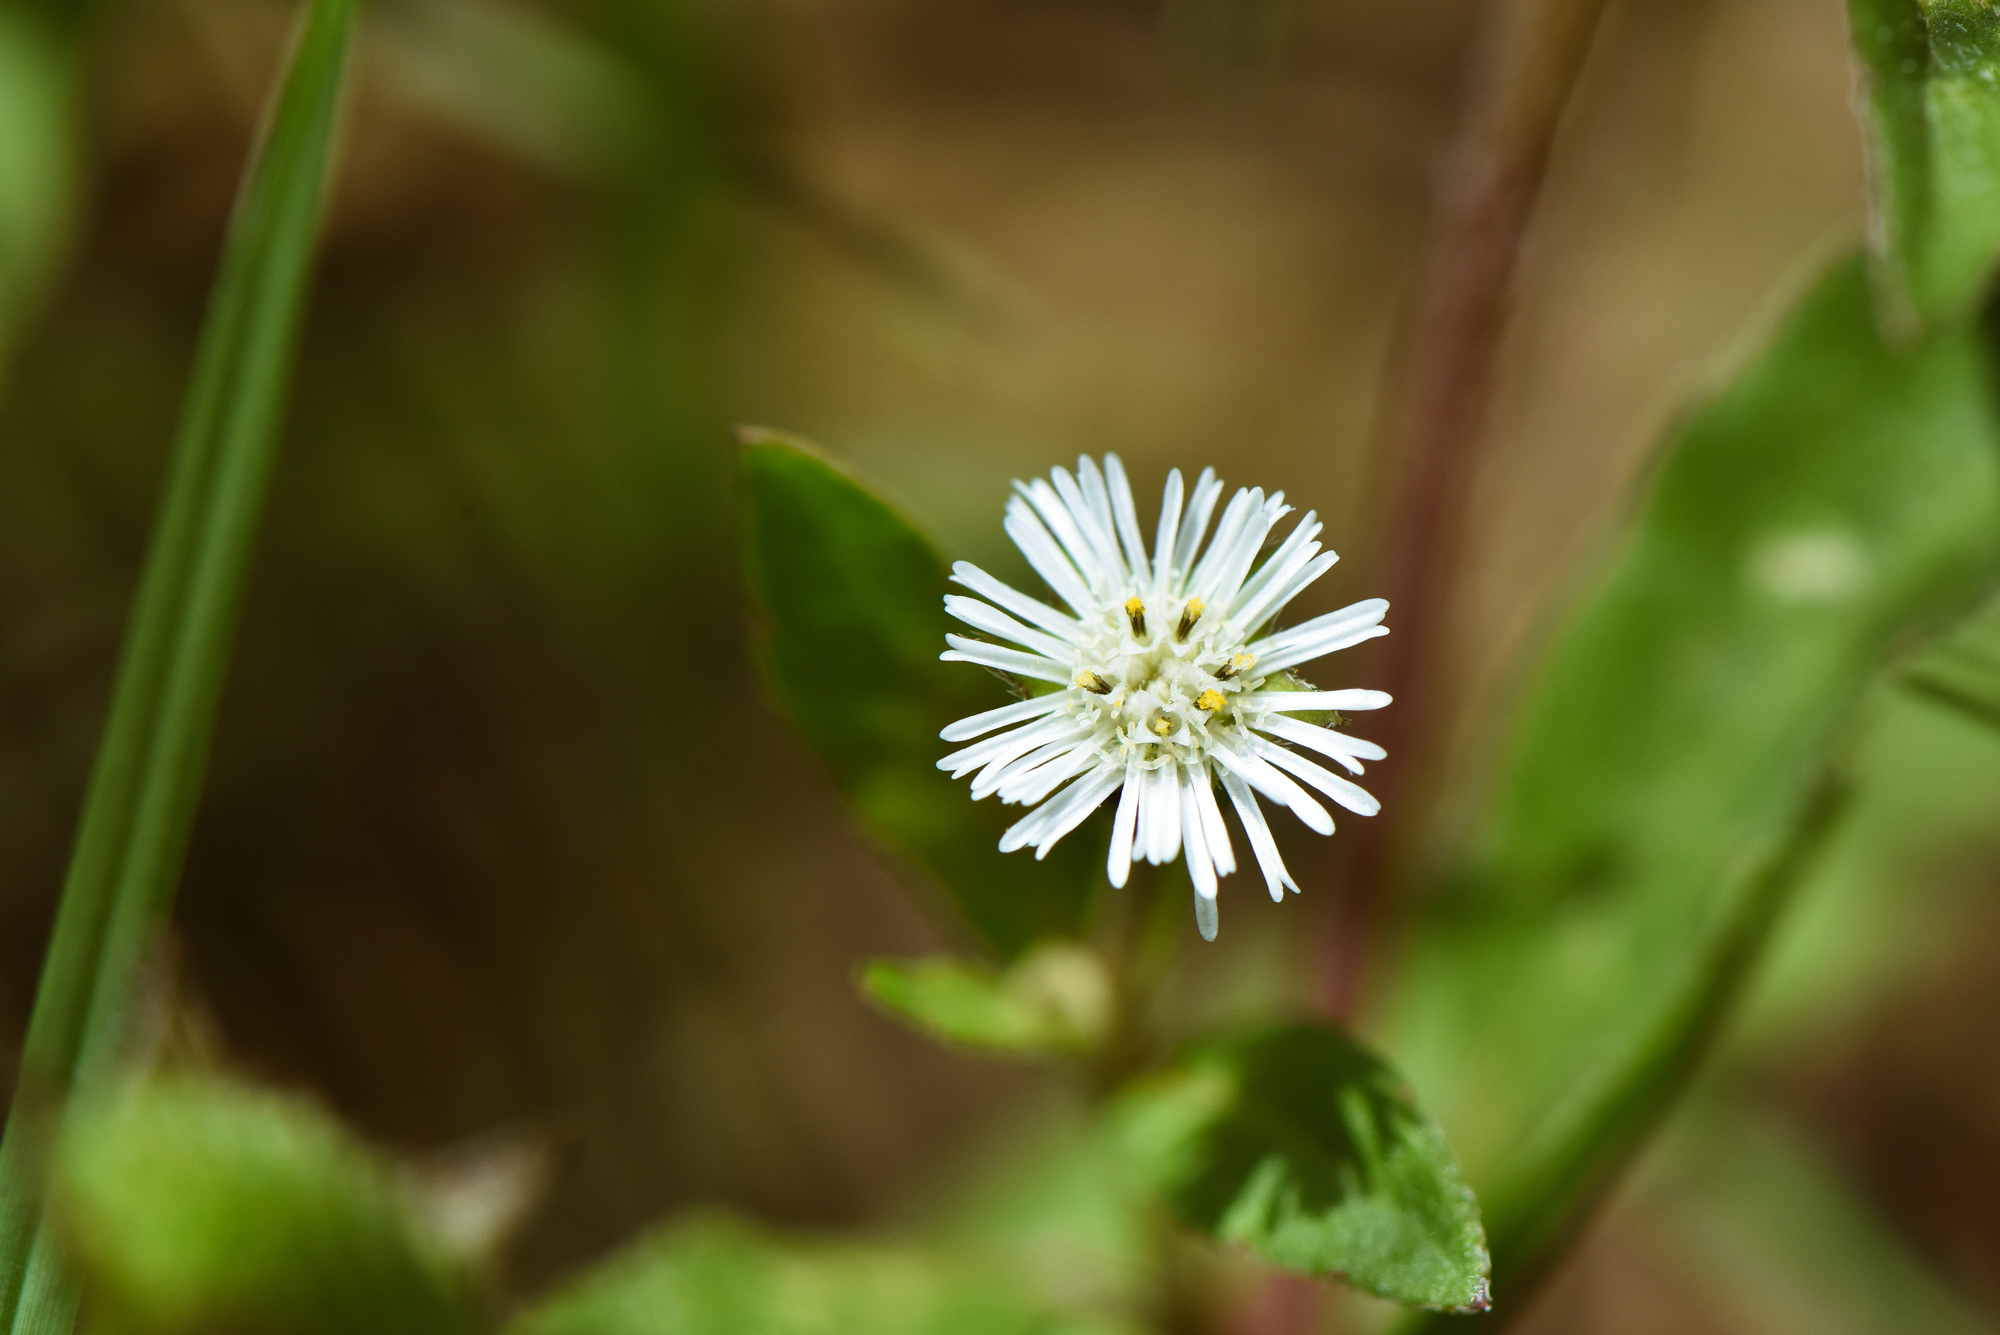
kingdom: Plantae
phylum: Tracheophyta
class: Magnoliopsida
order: Asterales
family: Asteraceae
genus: Eclipta
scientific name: Eclipta prostrata
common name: False daisy
